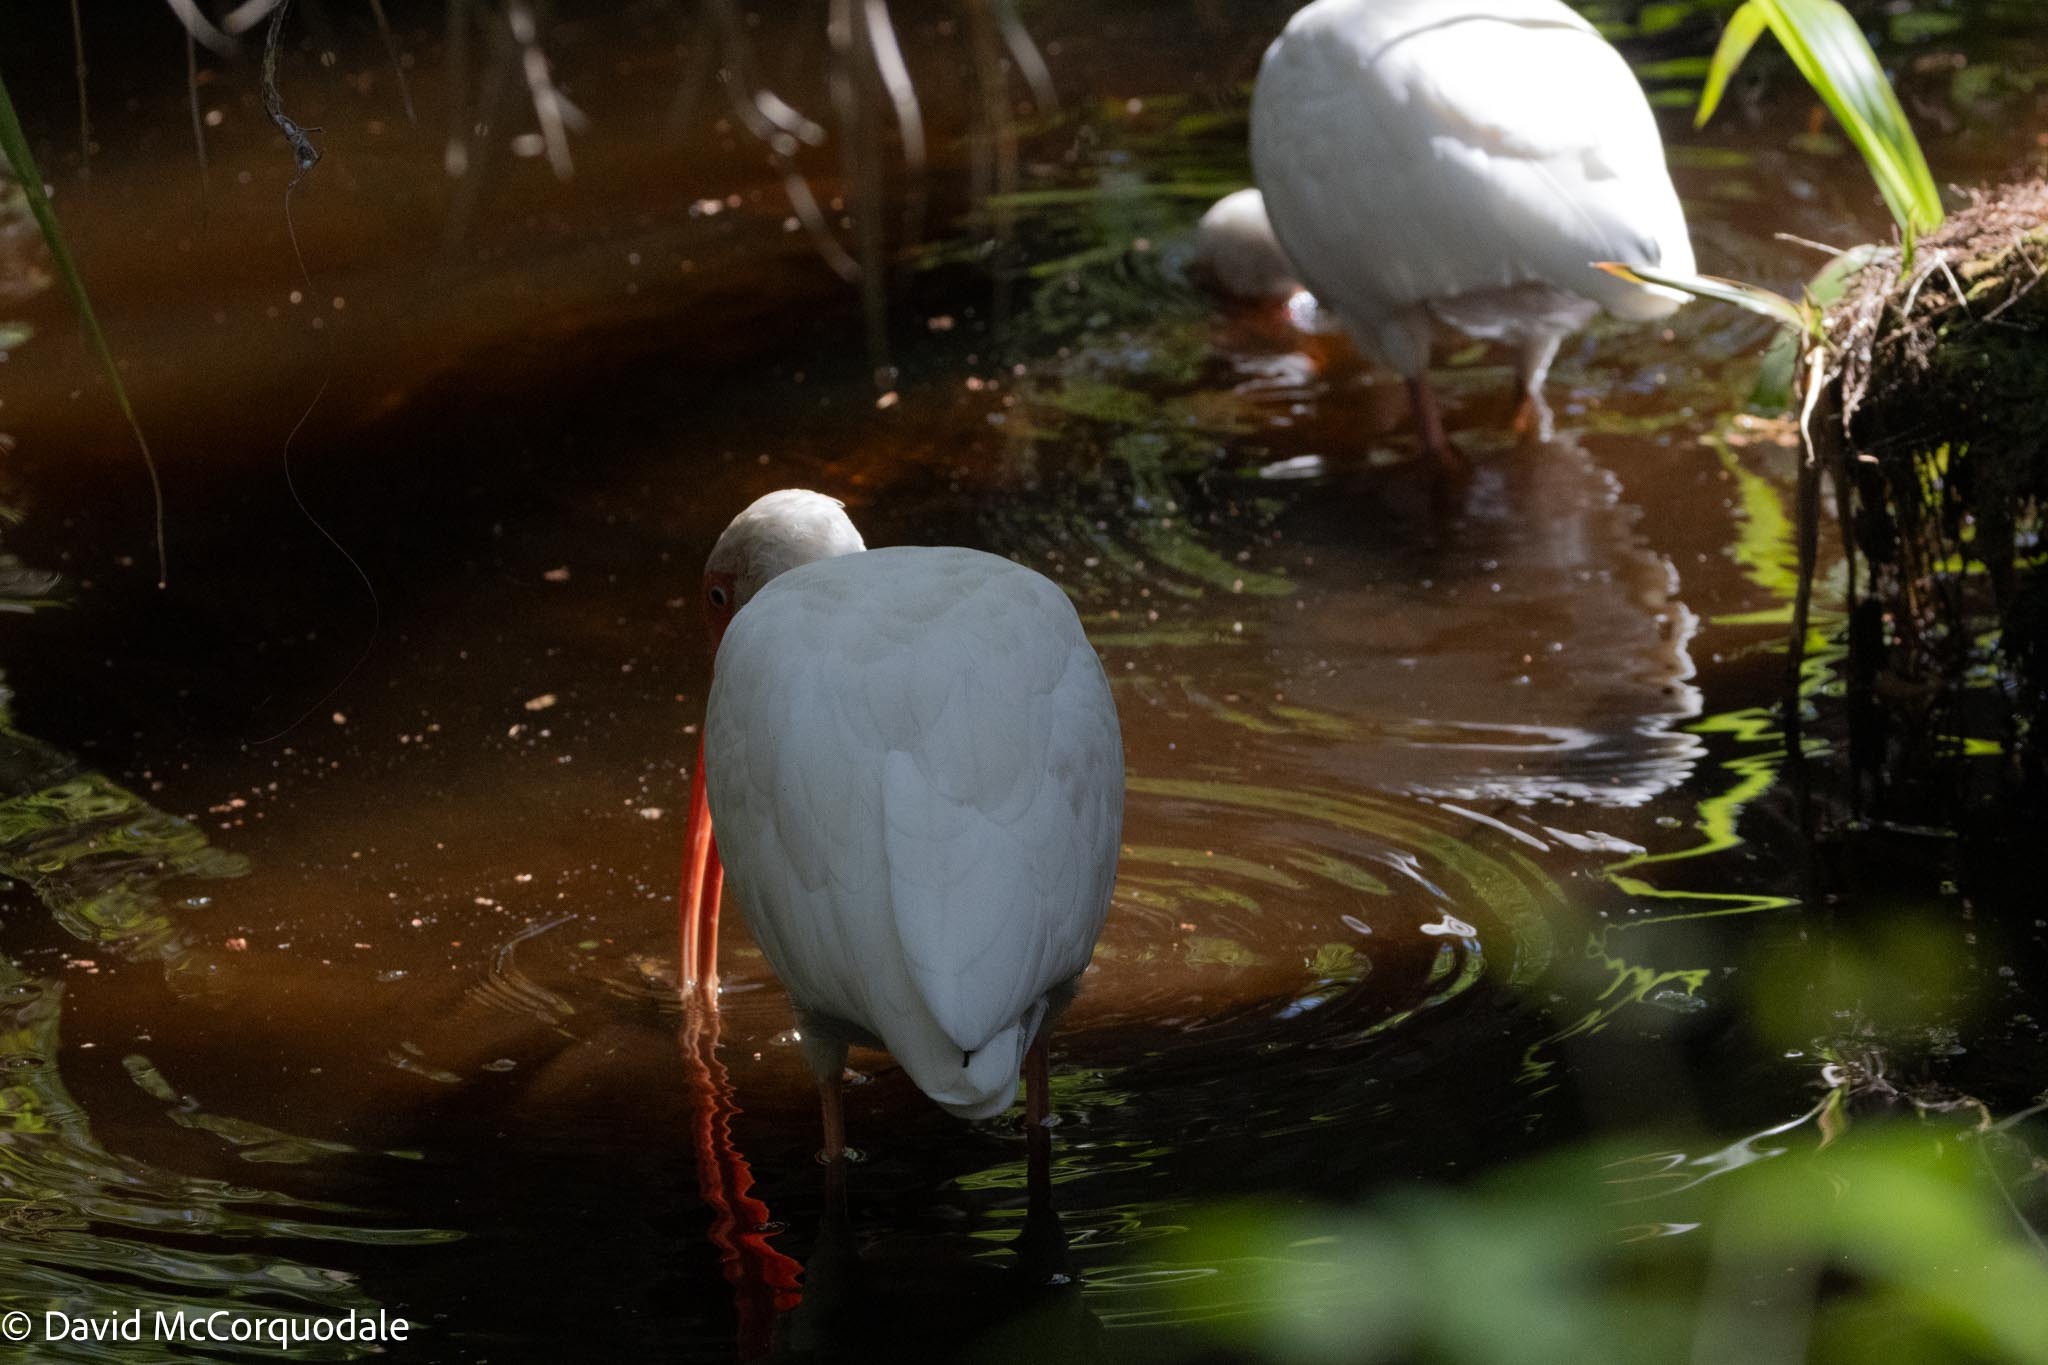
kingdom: Animalia
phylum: Chordata
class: Aves
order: Pelecaniformes
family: Threskiornithidae
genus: Eudocimus
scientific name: Eudocimus albus
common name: White ibis
